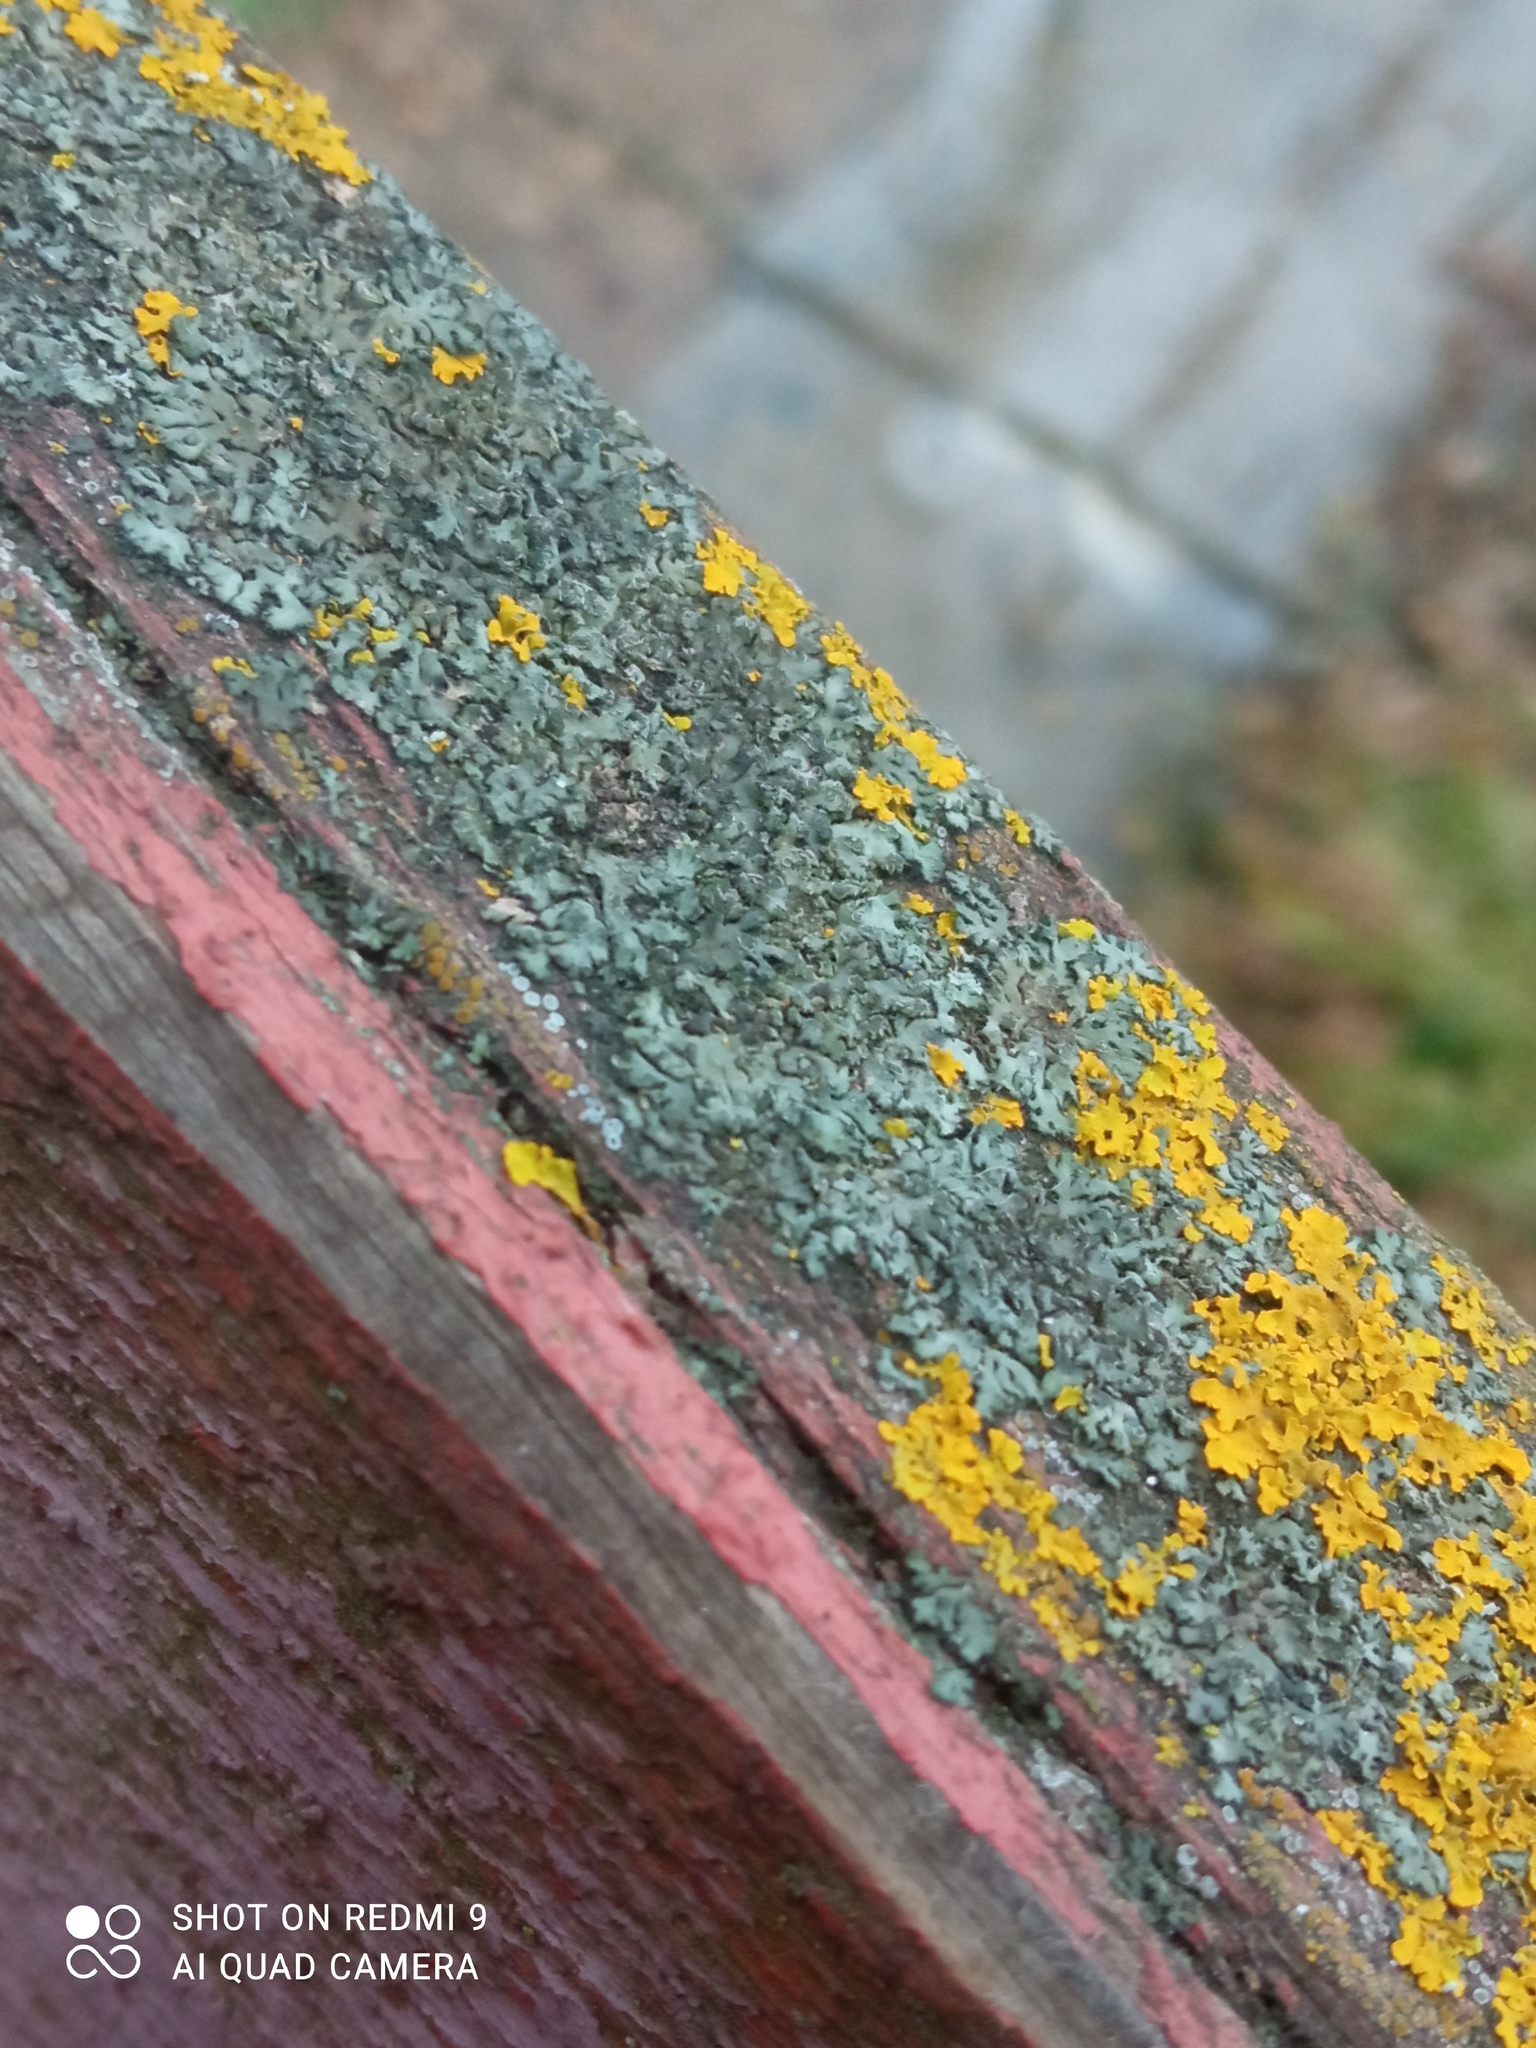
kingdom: Fungi
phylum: Ascomycota
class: Lecanoromycetes
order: Caliciales
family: Physciaceae
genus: Phaeophyscia
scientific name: Phaeophyscia orbicularis
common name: Mealy shadow lichen
